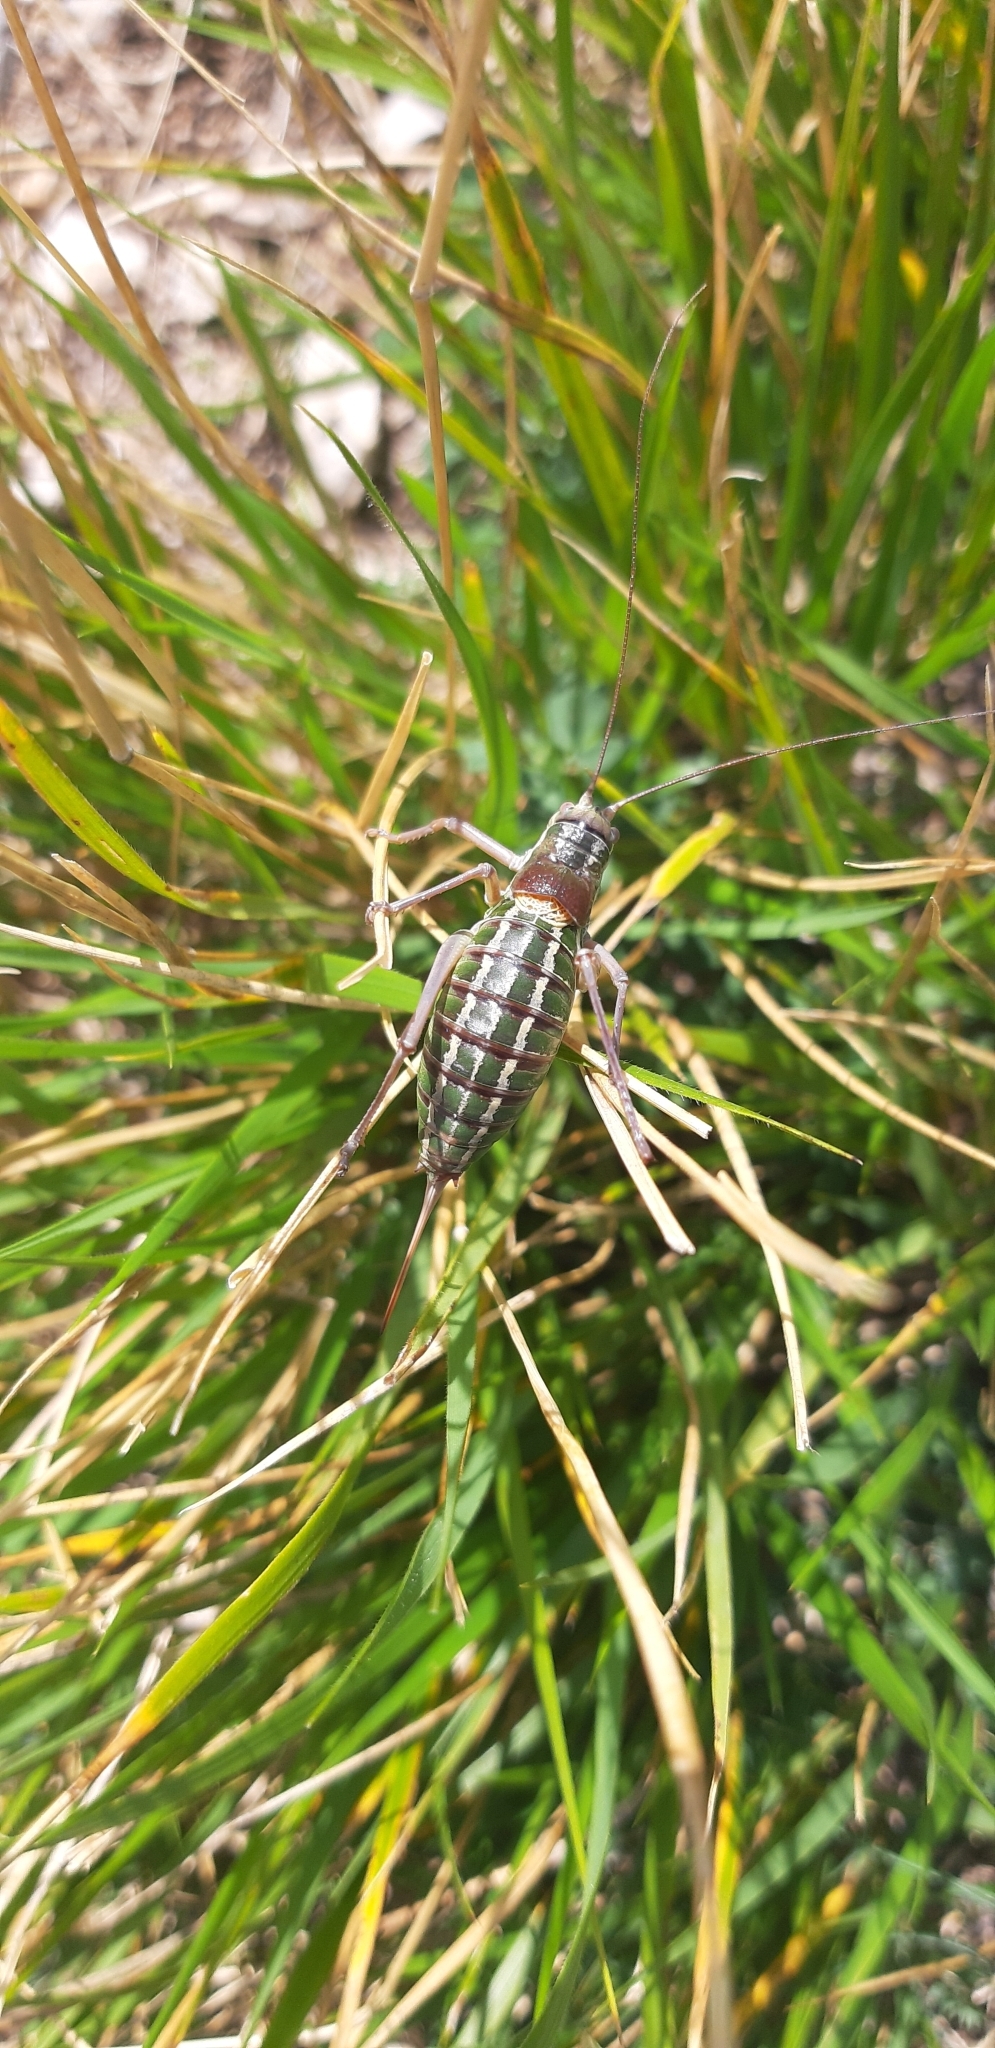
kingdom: Animalia
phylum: Arthropoda
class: Insecta
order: Orthoptera
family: Tettigoniidae
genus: Ephippiger
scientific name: Ephippiger ruffoi
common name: Pygmy saddle bush-cricket
